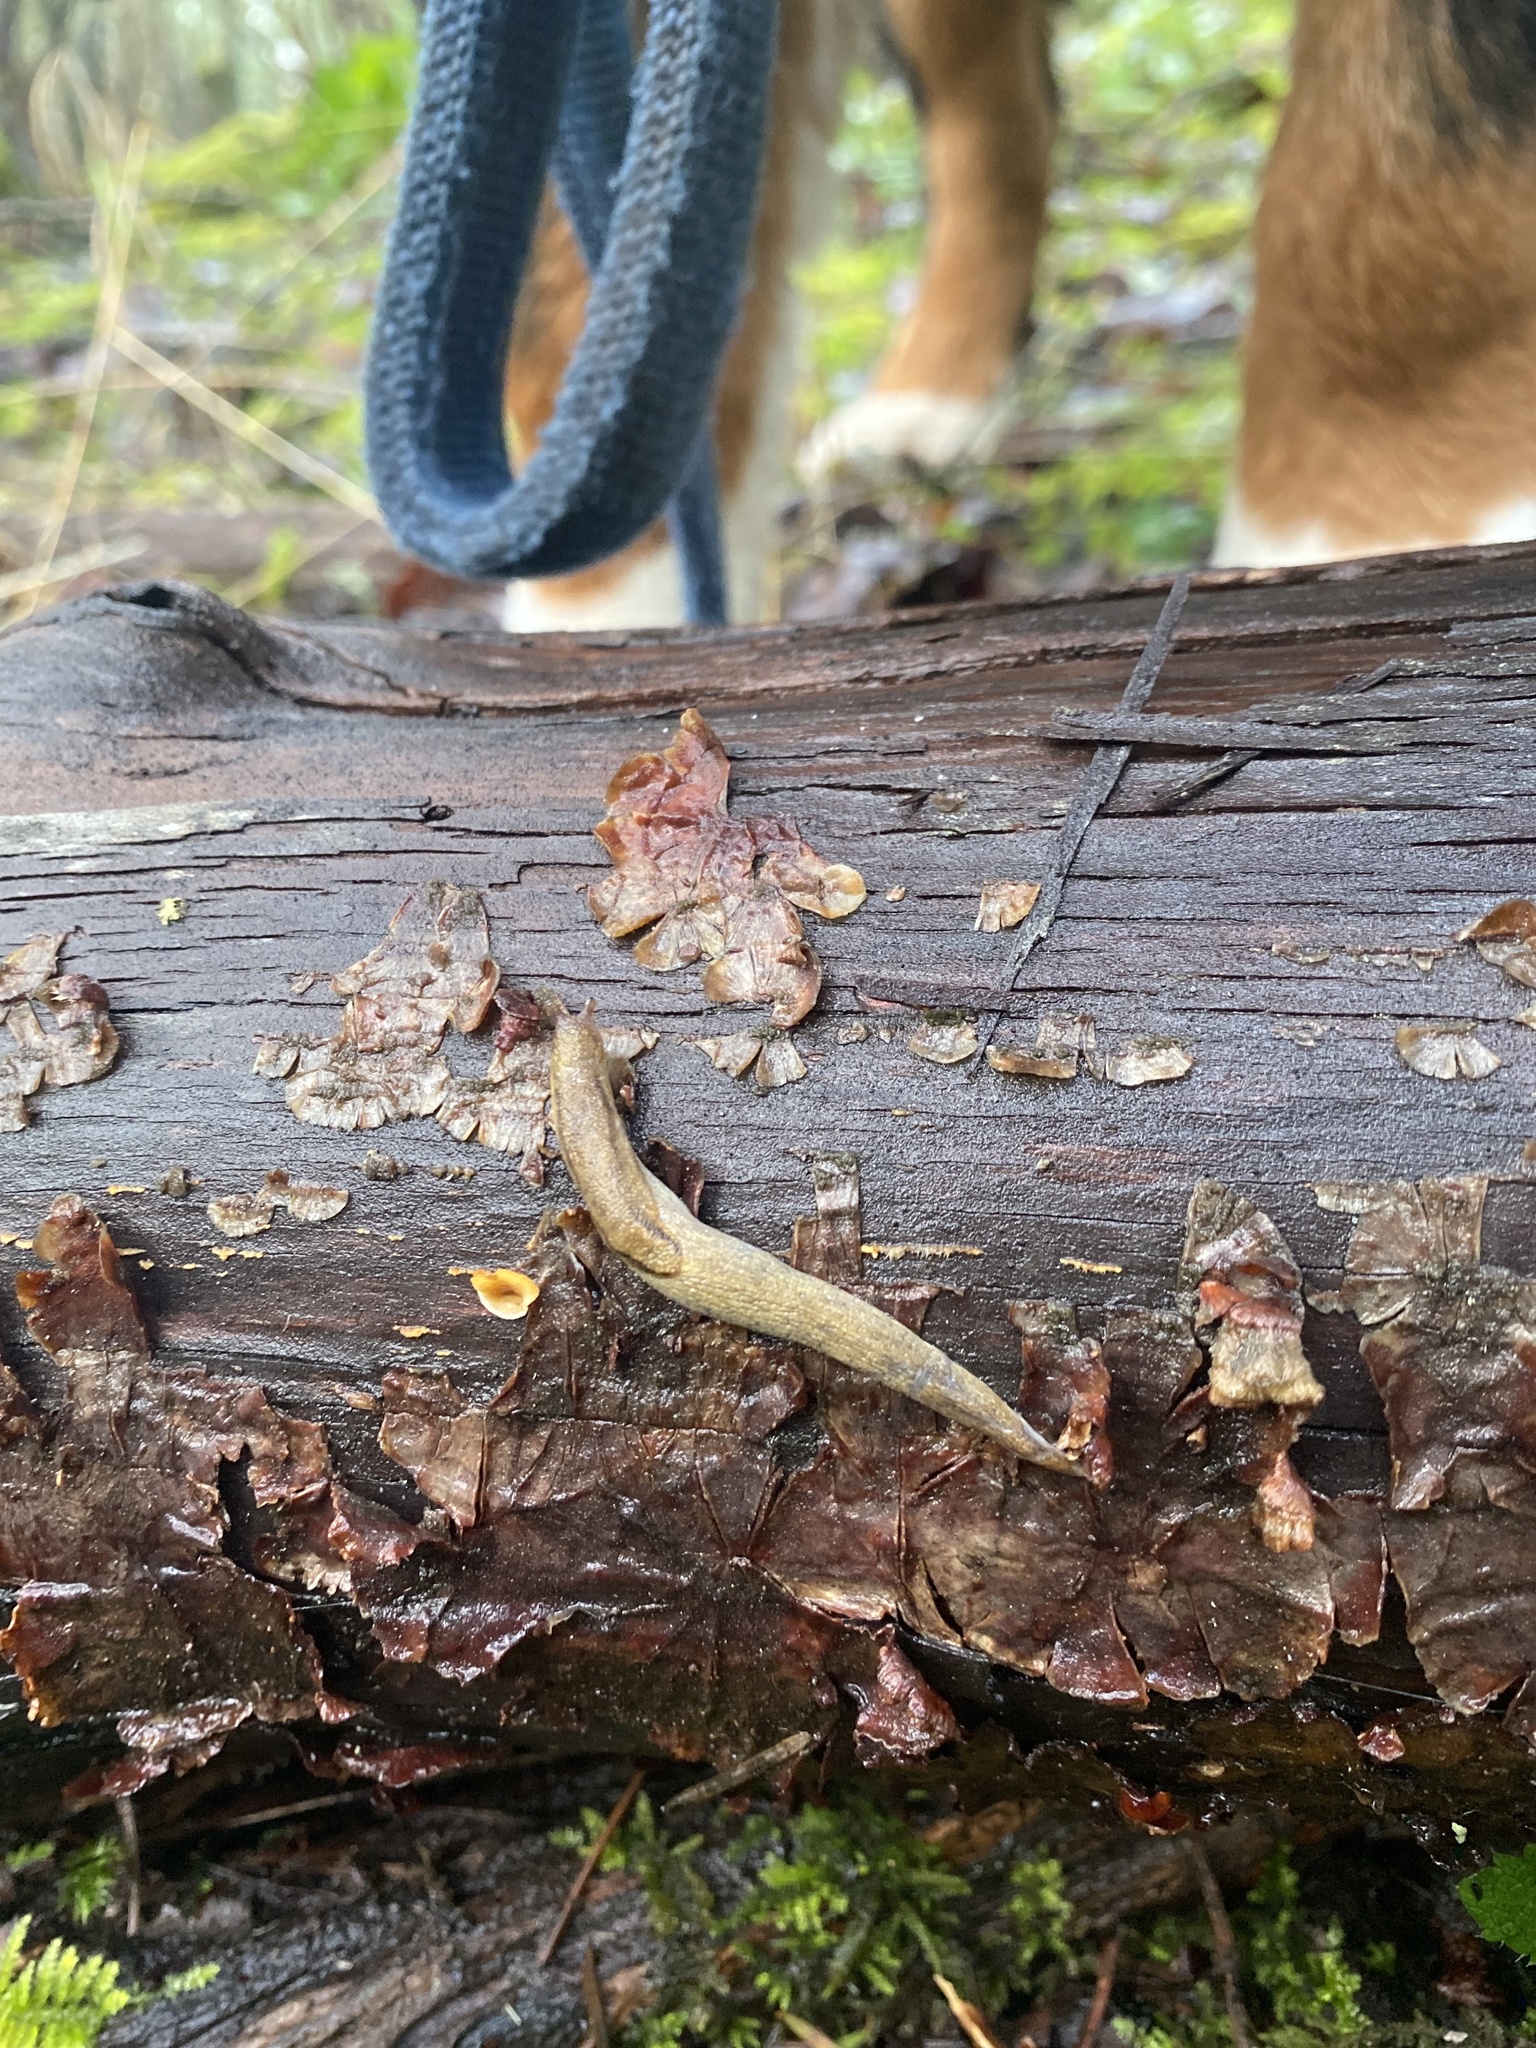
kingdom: Animalia
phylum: Mollusca
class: Gastropoda
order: Stylommatophora
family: Ariolimacidae
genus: Prophysaon
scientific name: Prophysaon andersonii
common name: Reticulate taildropper
